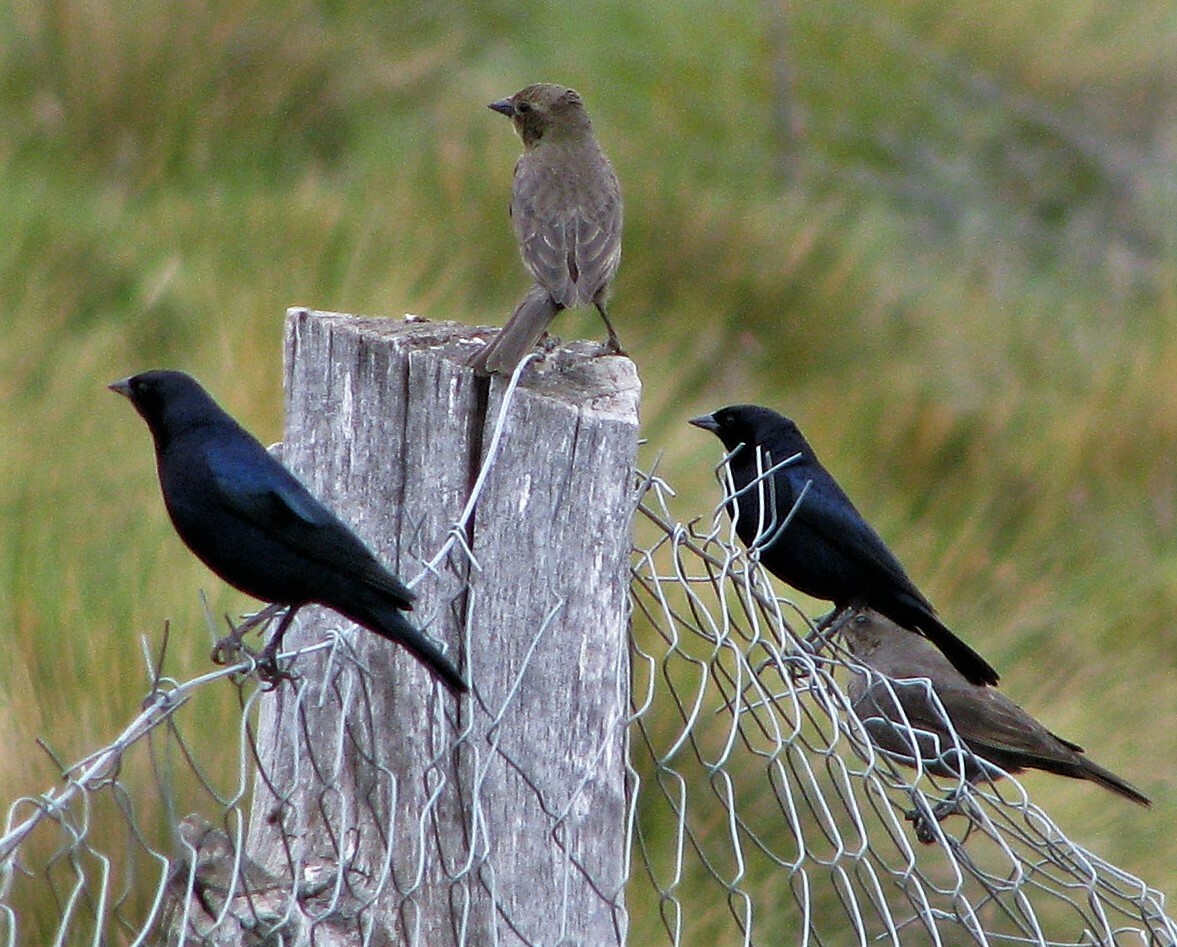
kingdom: Animalia
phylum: Chordata
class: Aves
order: Passeriformes
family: Icteridae
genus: Molothrus
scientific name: Molothrus bonariensis
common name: Shiny cowbird
